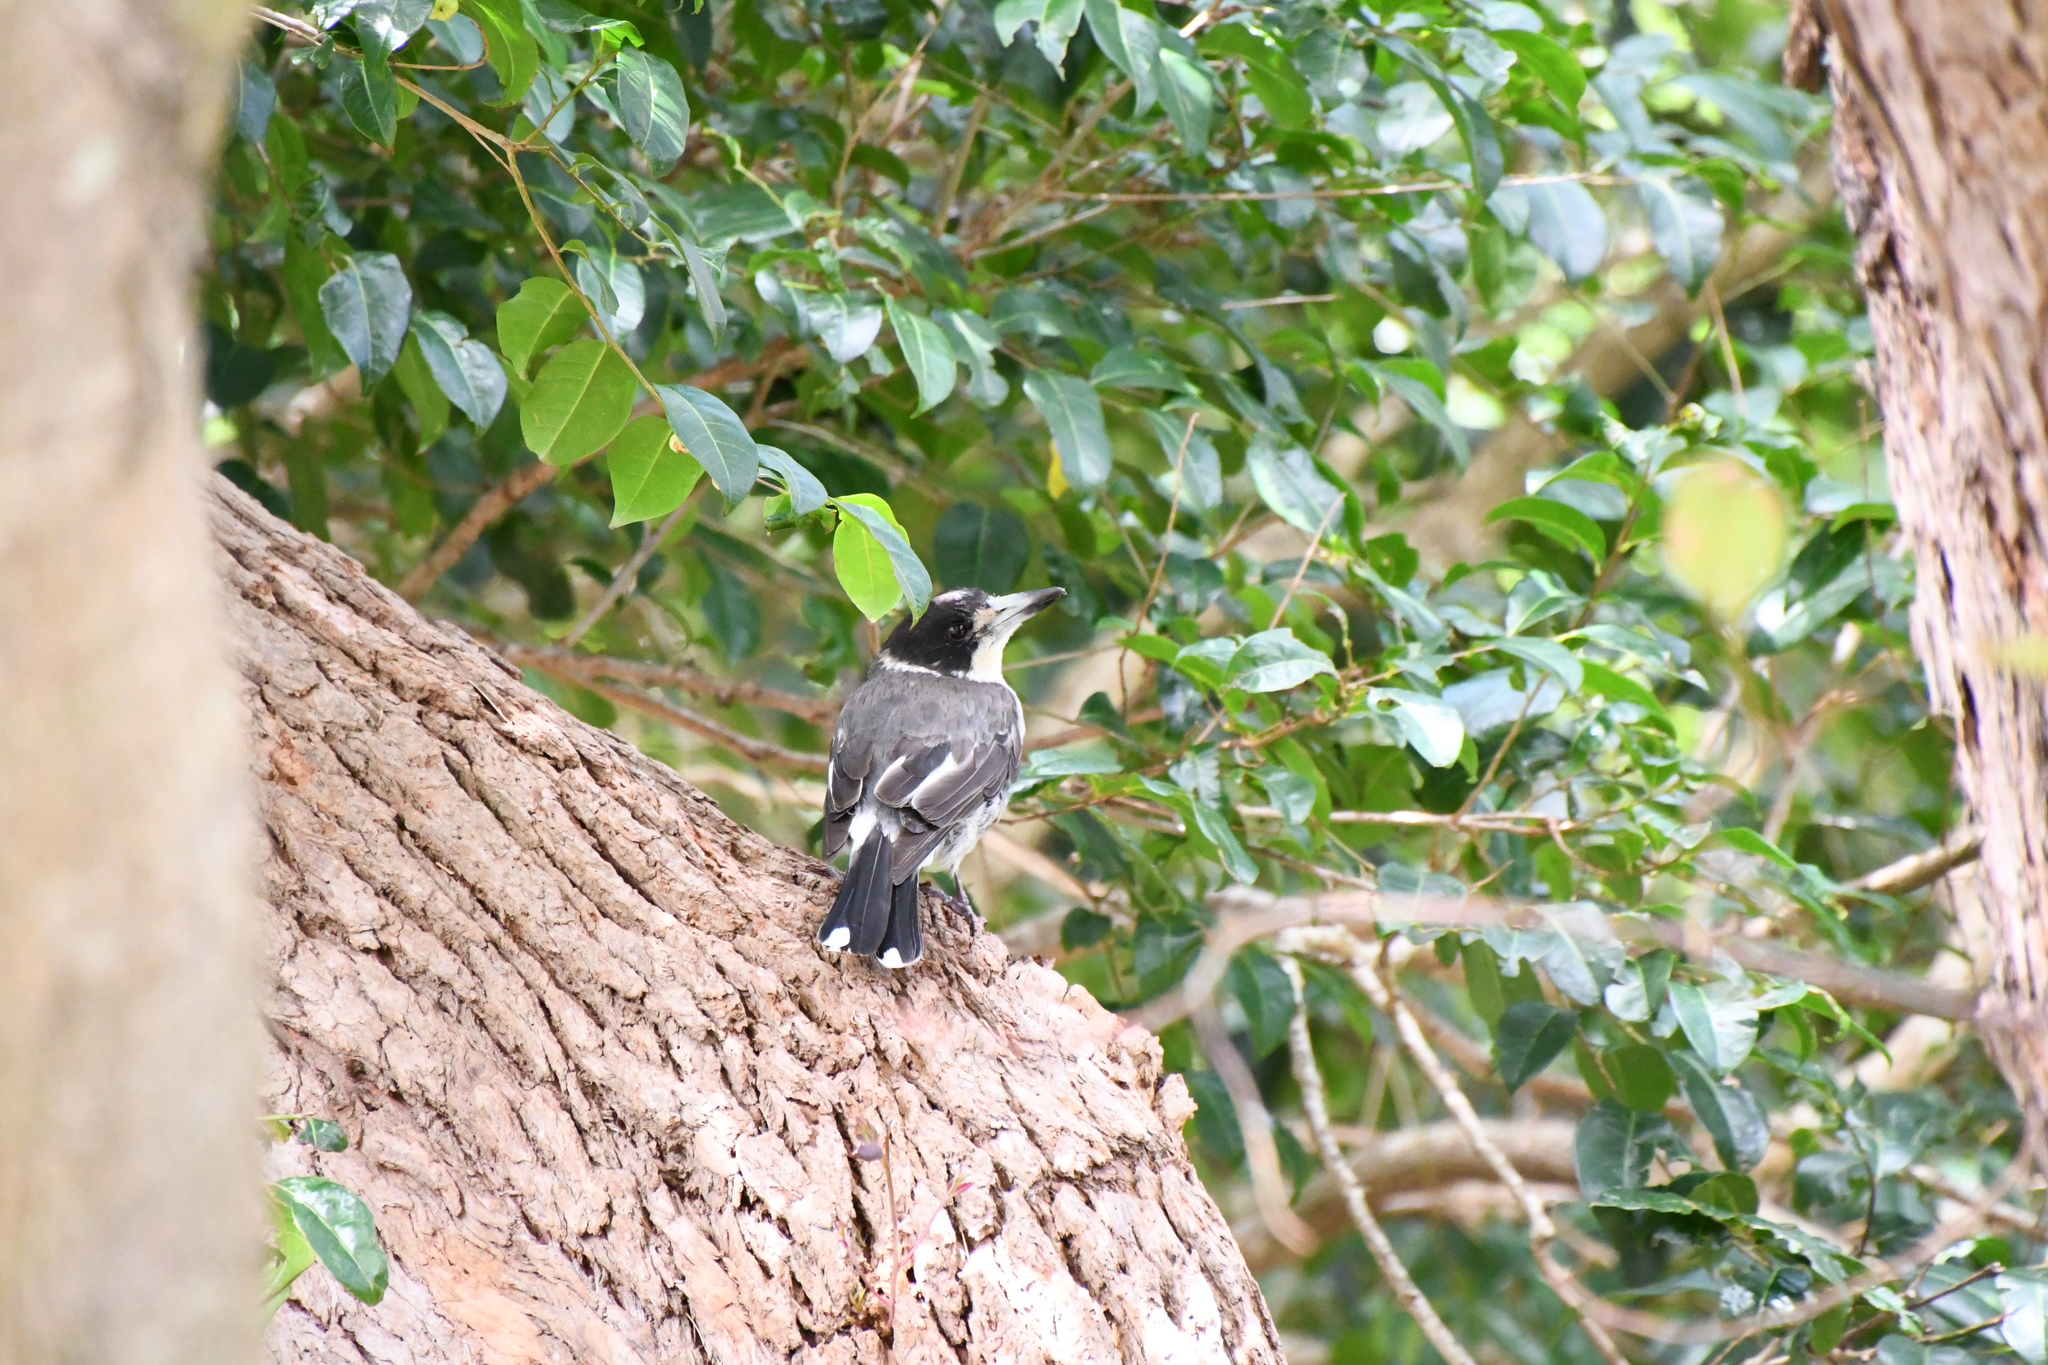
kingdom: Animalia
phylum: Chordata
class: Aves
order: Passeriformes
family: Cracticidae
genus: Cracticus
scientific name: Cracticus torquatus
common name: Grey butcherbird
